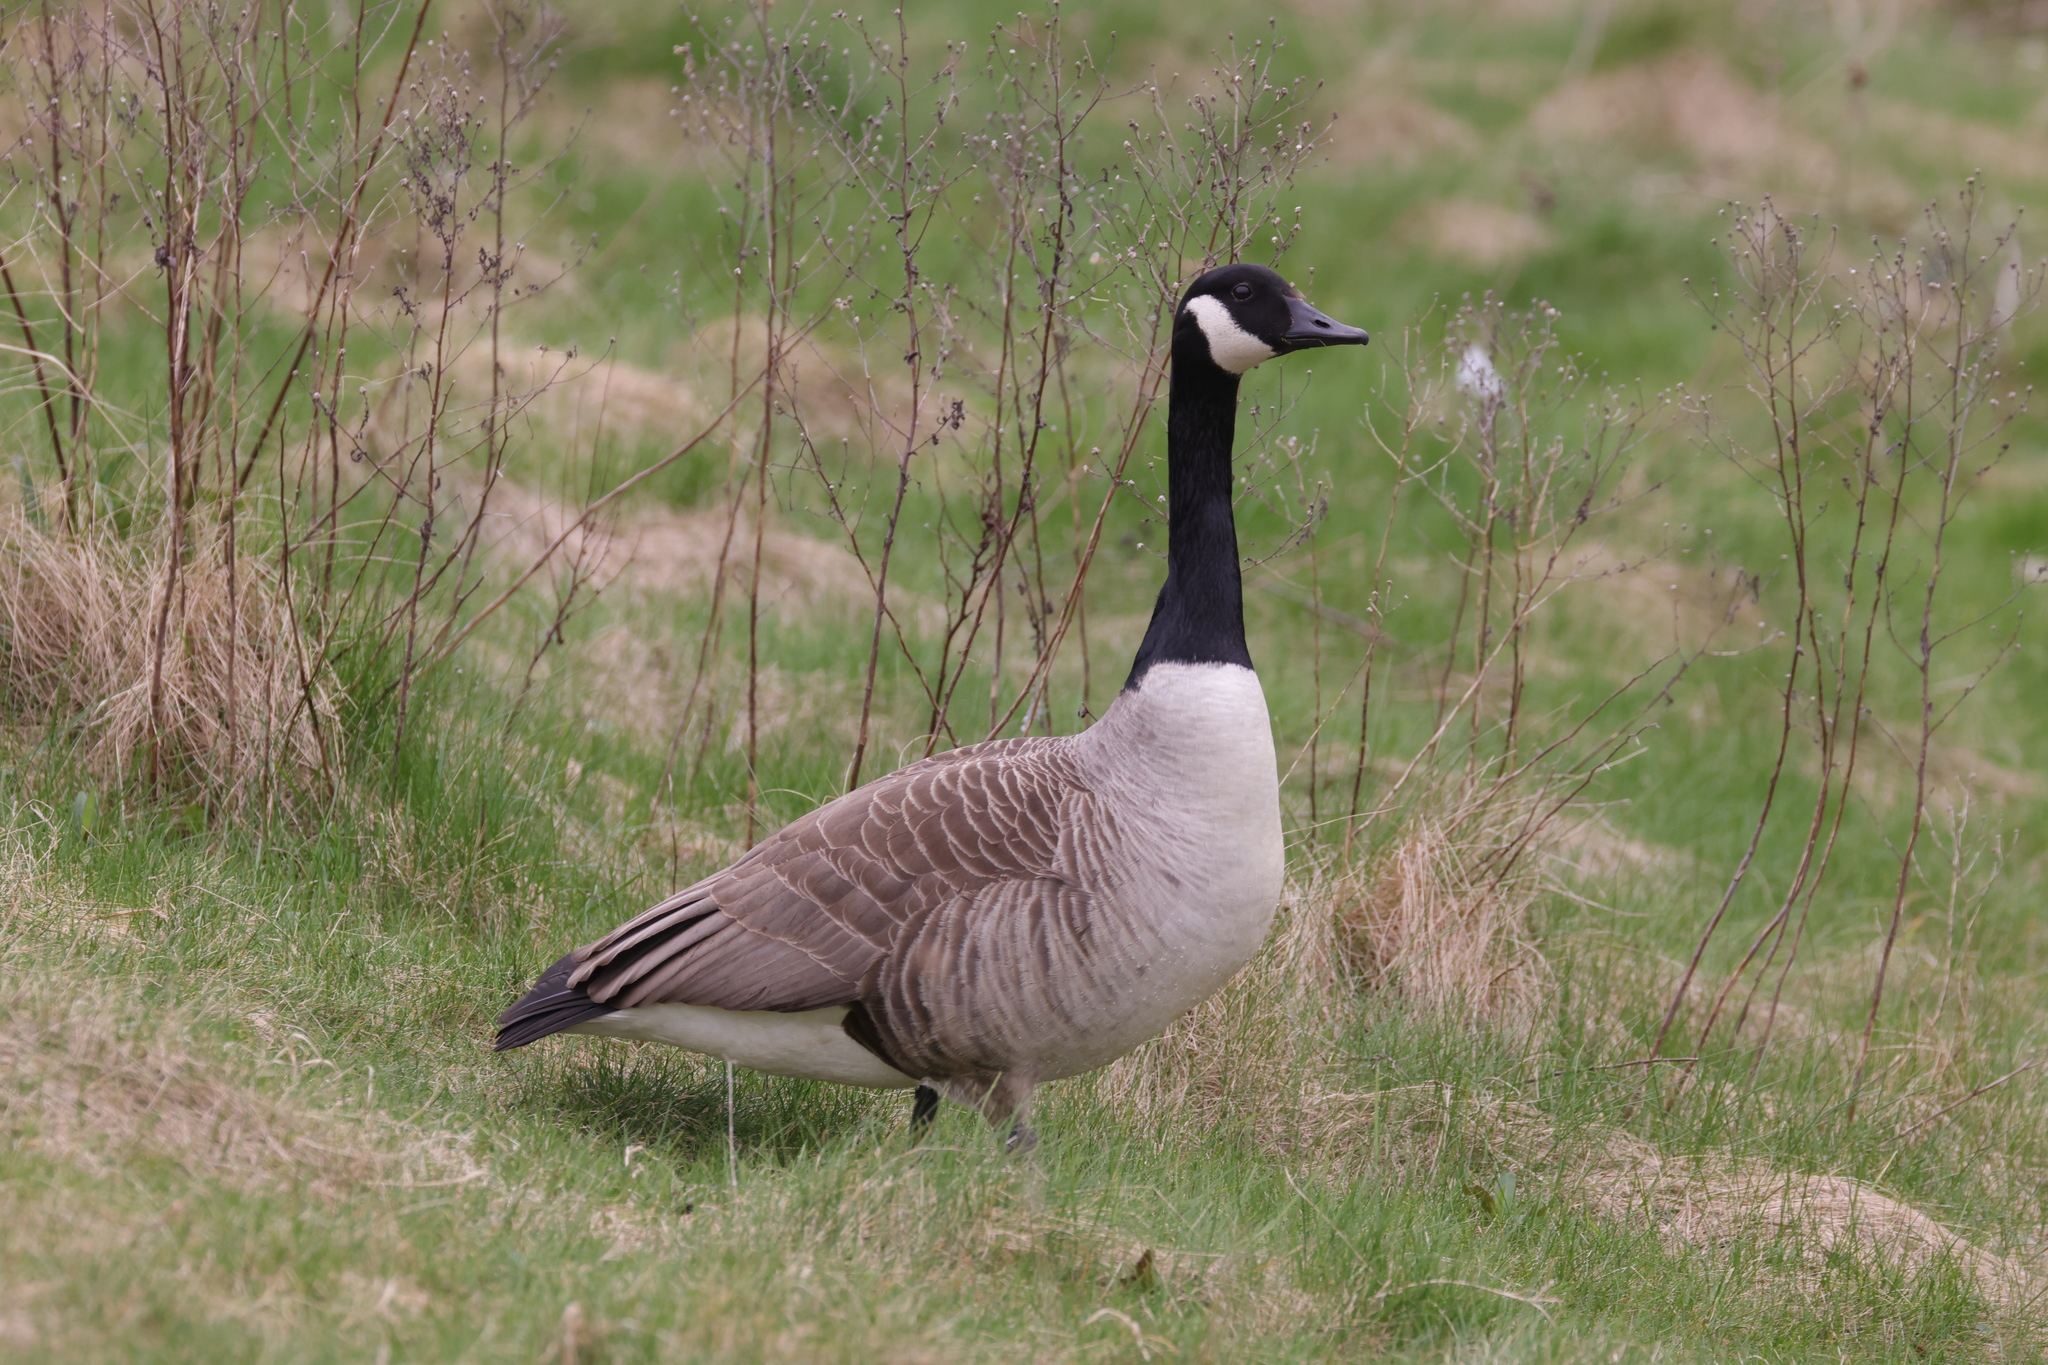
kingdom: Animalia
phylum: Chordata
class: Aves
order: Anseriformes
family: Anatidae
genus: Branta
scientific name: Branta canadensis
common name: Canada goose
